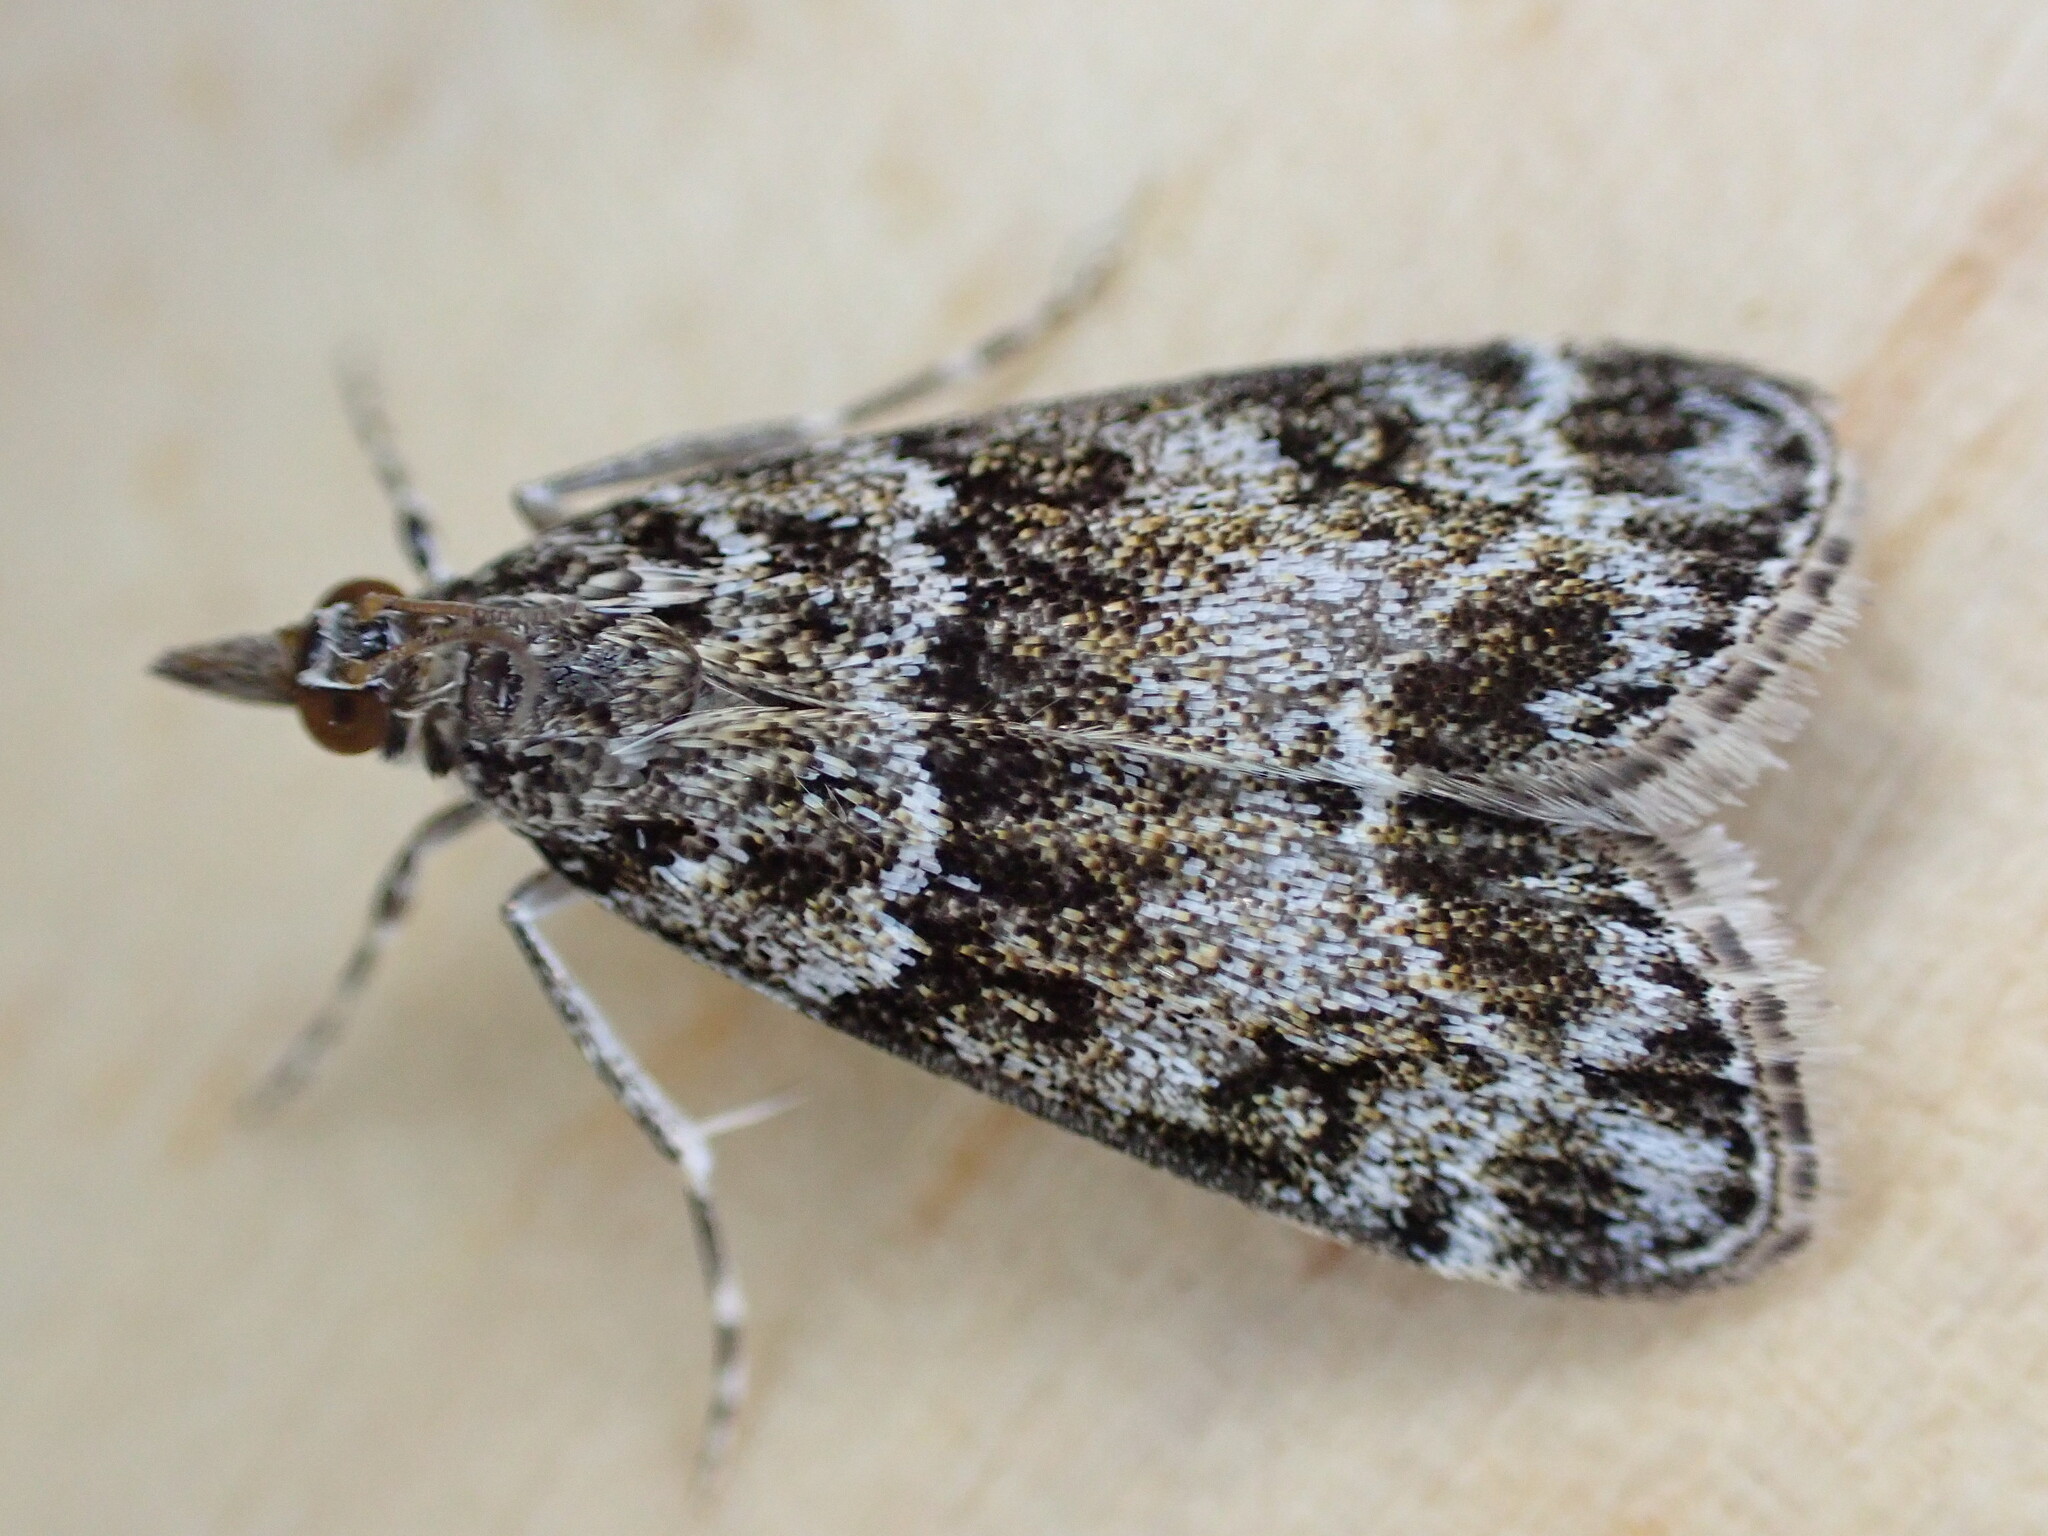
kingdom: Animalia
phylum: Arthropoda
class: Insecta
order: Lepidoptera
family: Crambidae
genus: Eudonia
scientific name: Eudonia mercurella
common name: Small grey
